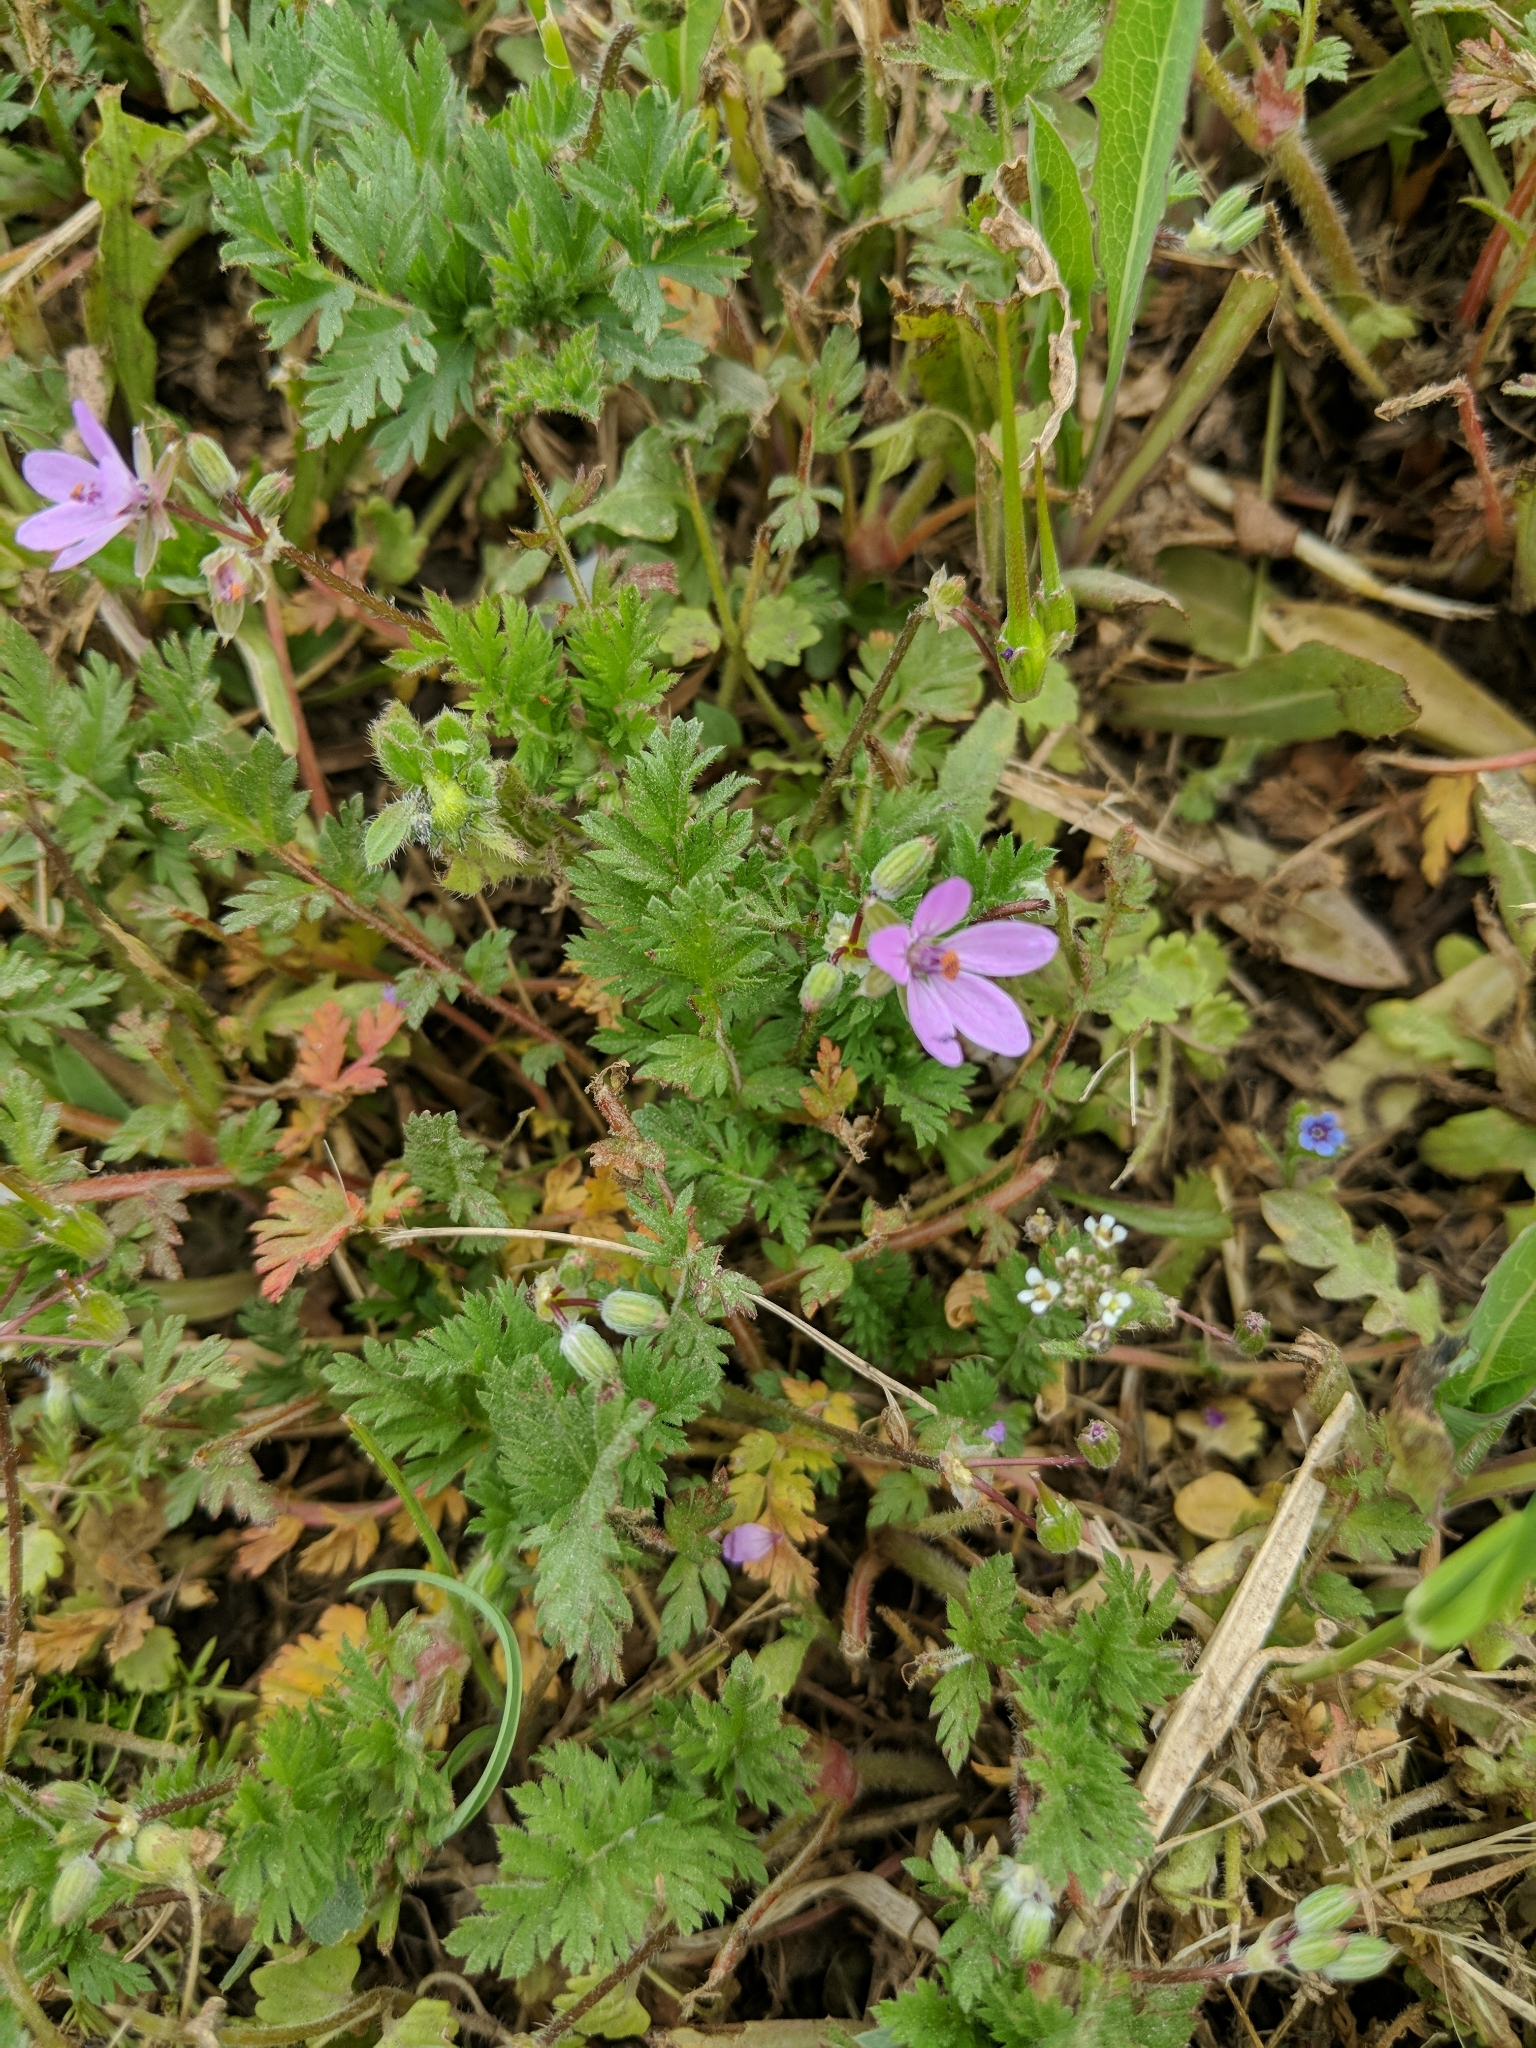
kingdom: Plantae
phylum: Tracheophyta
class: Magnoliopsida
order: Geraniales
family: Geraniaceae
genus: Erodium
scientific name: Erodium cicutarium
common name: Common stork's-bill
